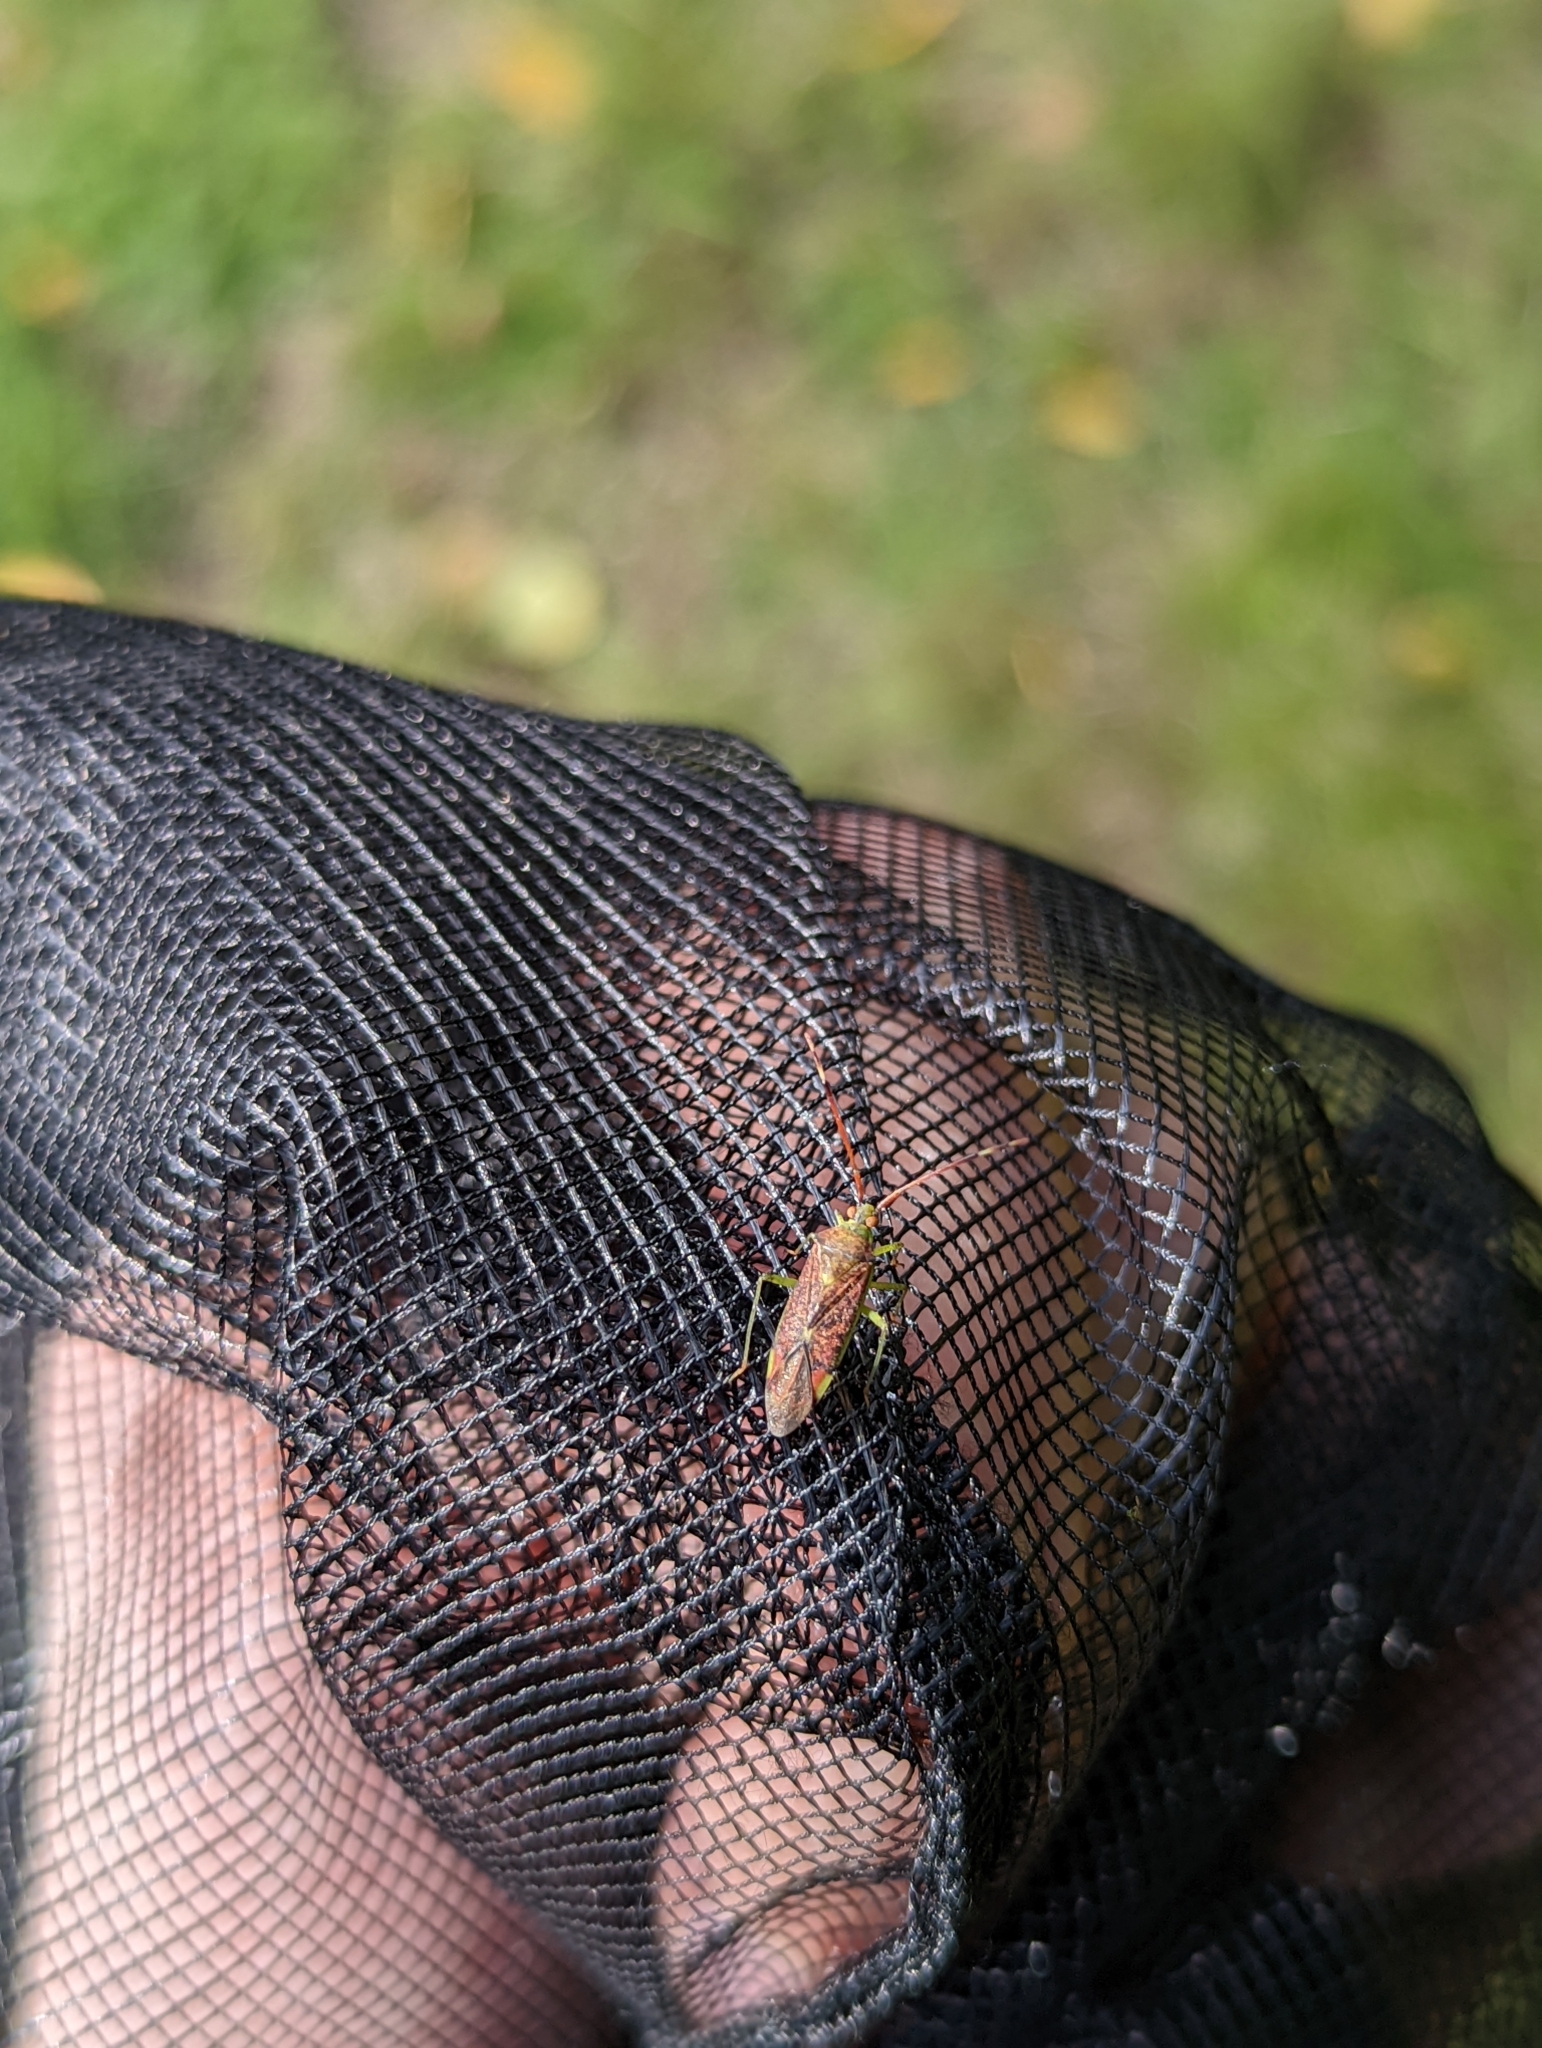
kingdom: Animalia
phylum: Arthropoda
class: Insecta
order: Hemiptera
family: Miridae
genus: Pantilius
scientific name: Pantilius tunicatus
